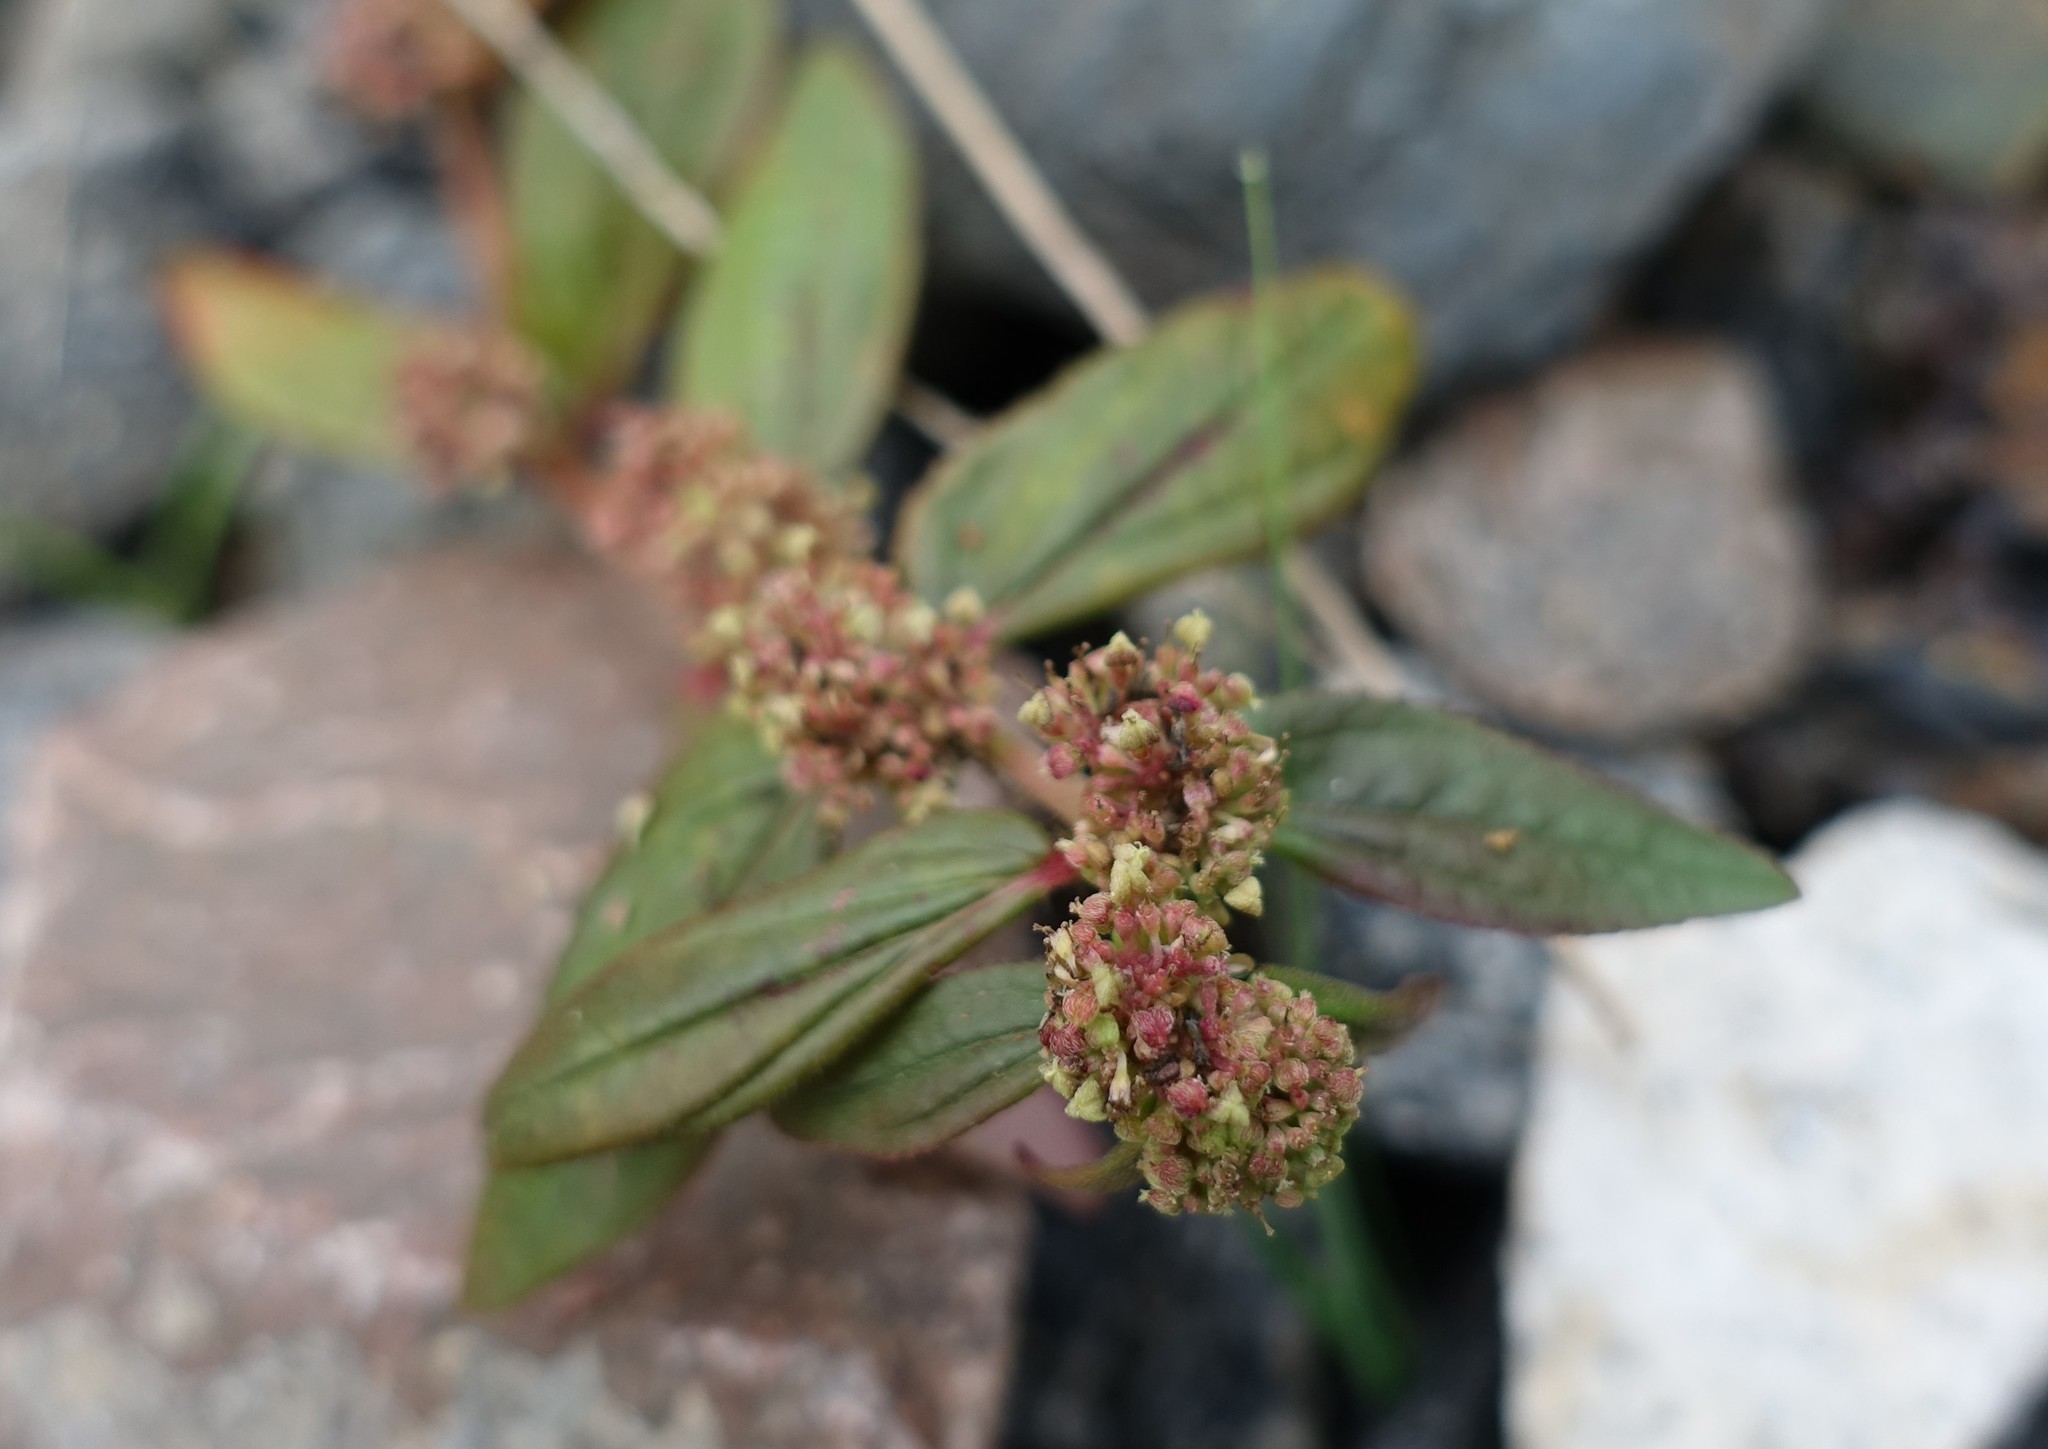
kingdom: Plantae
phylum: Tracheophyta
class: Magnoliopsida
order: Malpighiales
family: Euphorbiaceae
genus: Euphorbia
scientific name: Euphorbia hirta
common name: Pillpod sandmat
